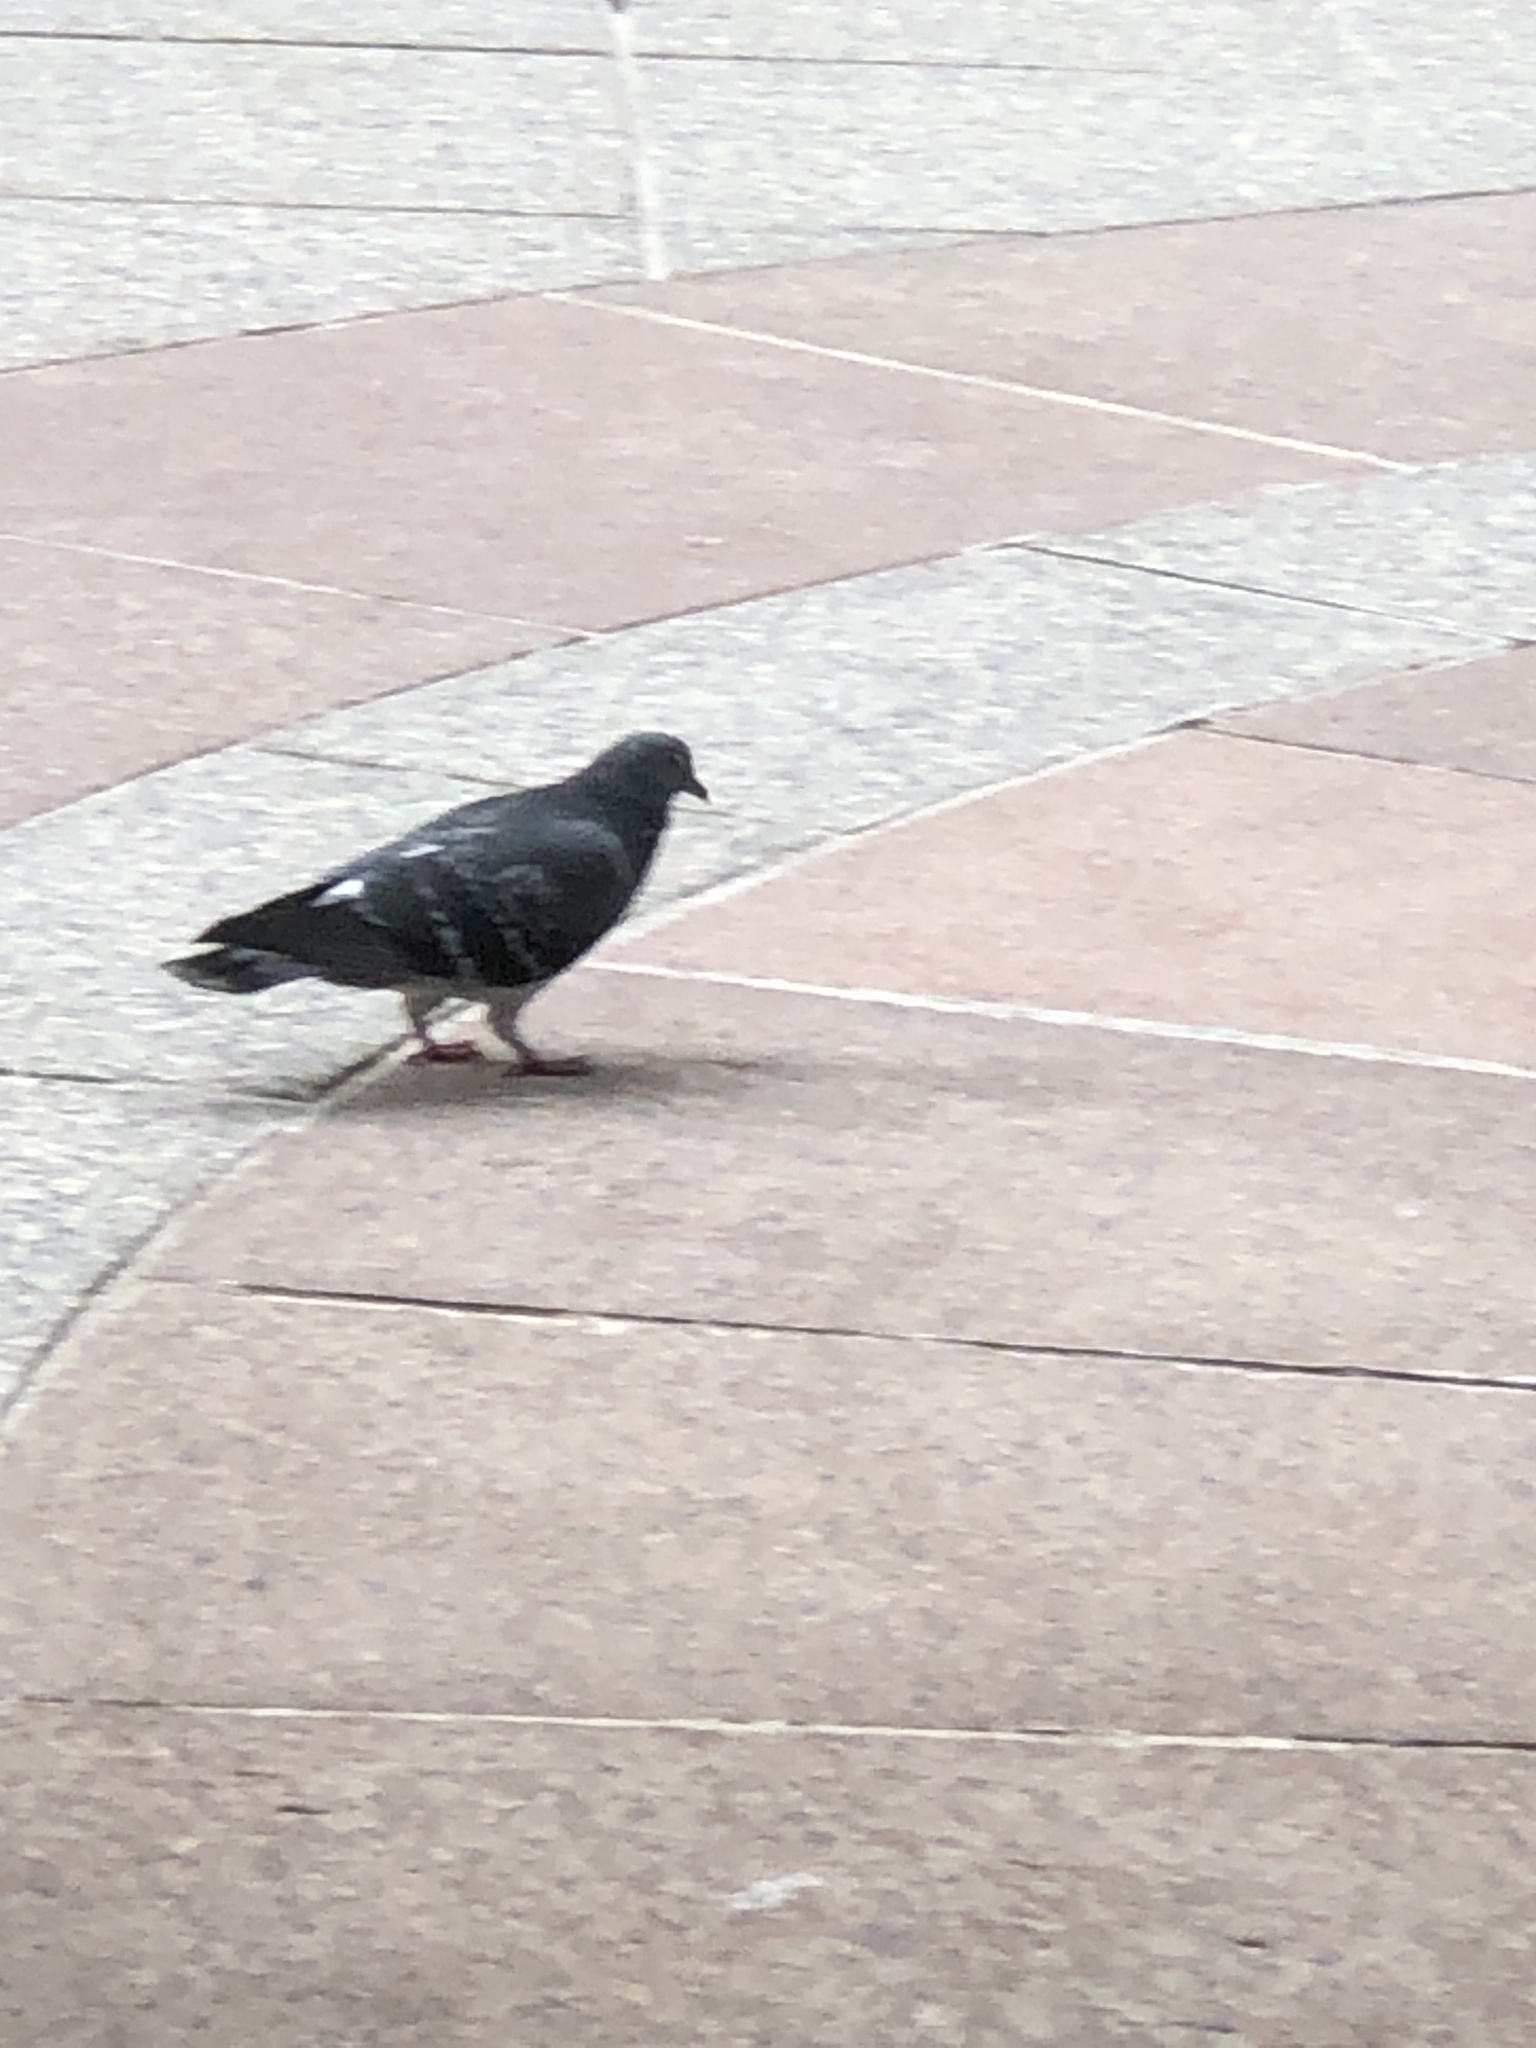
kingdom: Animalia
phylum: Chordata
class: Aves
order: Columbiformes
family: Columbidae
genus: Columba
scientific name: Columba livia
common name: Rock pigeon
